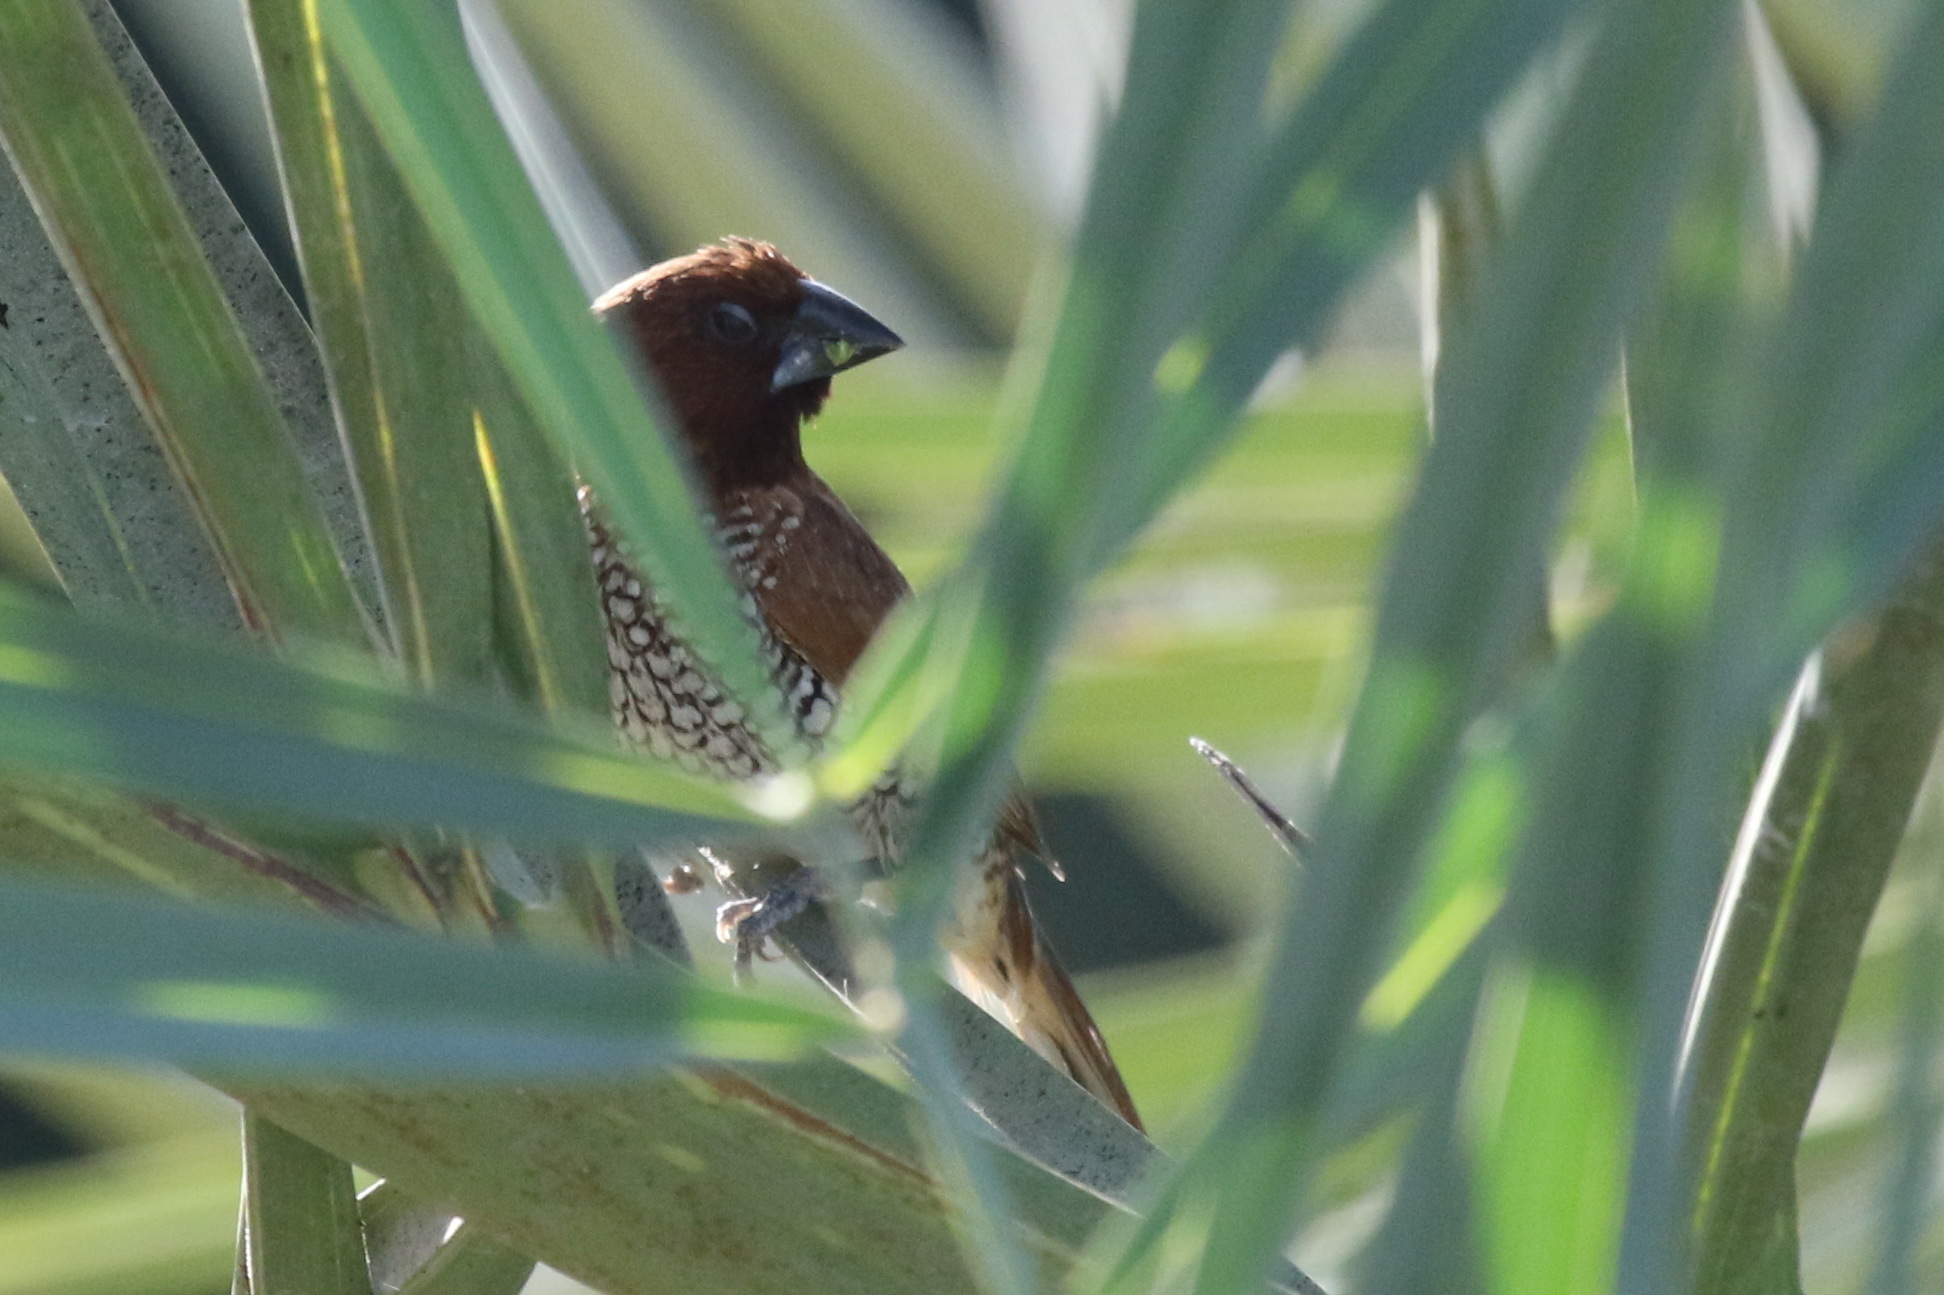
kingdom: Animalia
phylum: Chordata
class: Aves
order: Passeriformes
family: Estrildidae
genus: Lonchura
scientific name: Lonchura punctulata
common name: Scaly-breasted munia
